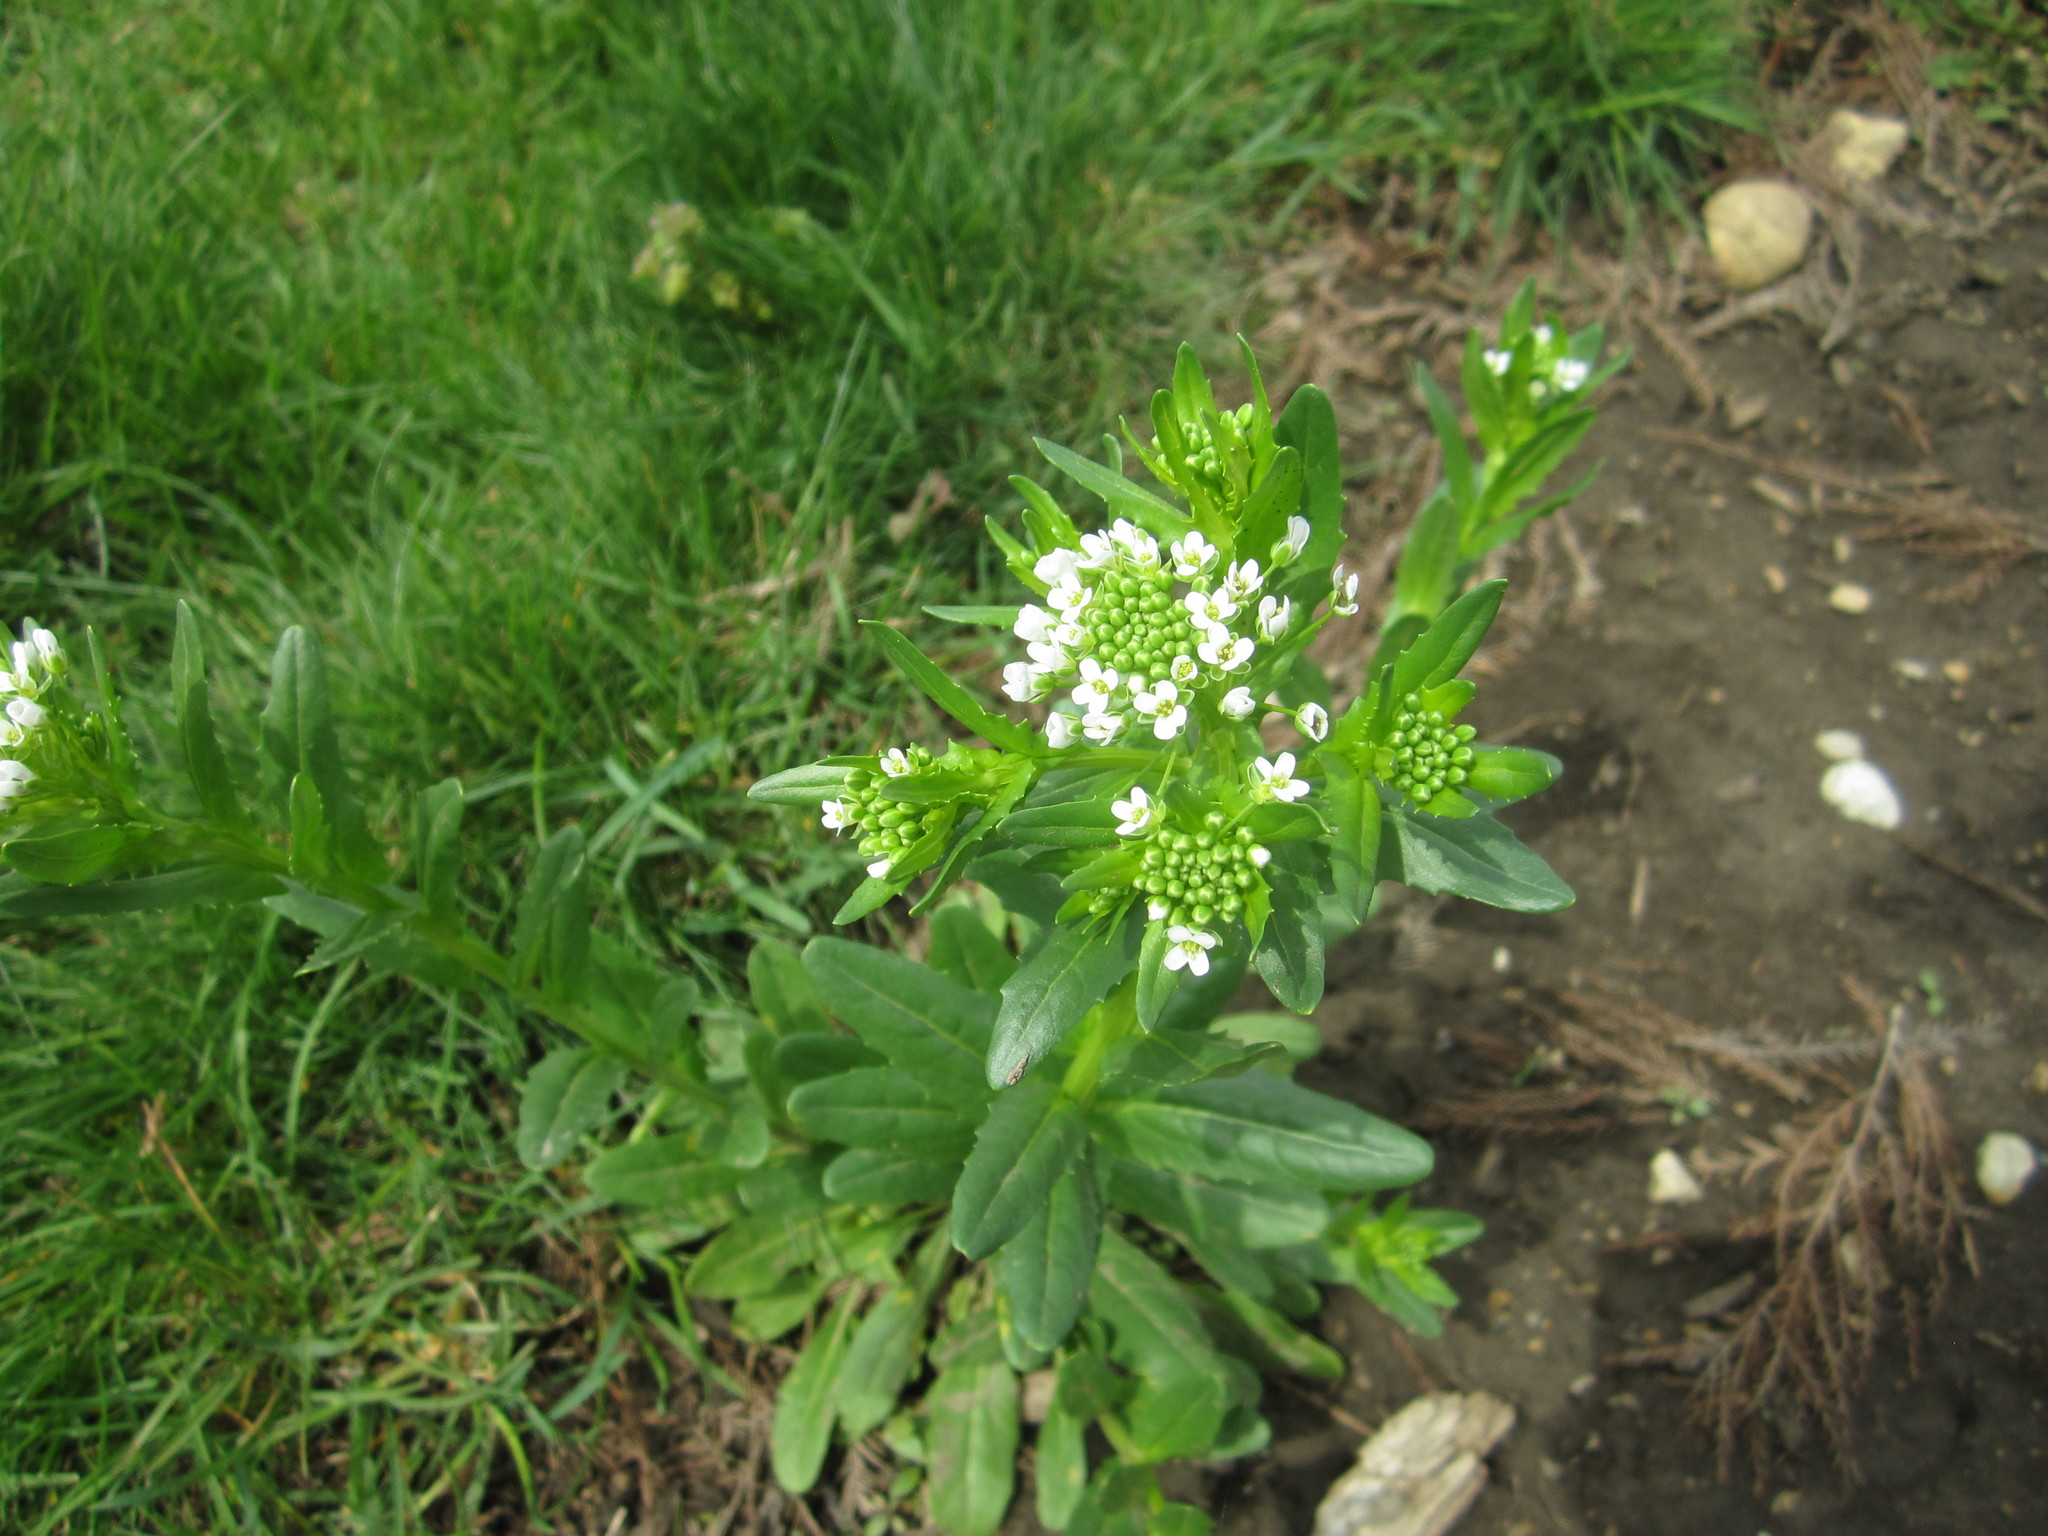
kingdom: Plantae
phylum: Tracheophyta
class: Magnoliopsida
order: Brassicales
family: Brassicaceae
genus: Thlaspi
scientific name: Thlaspi arvense
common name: Field pennycress
